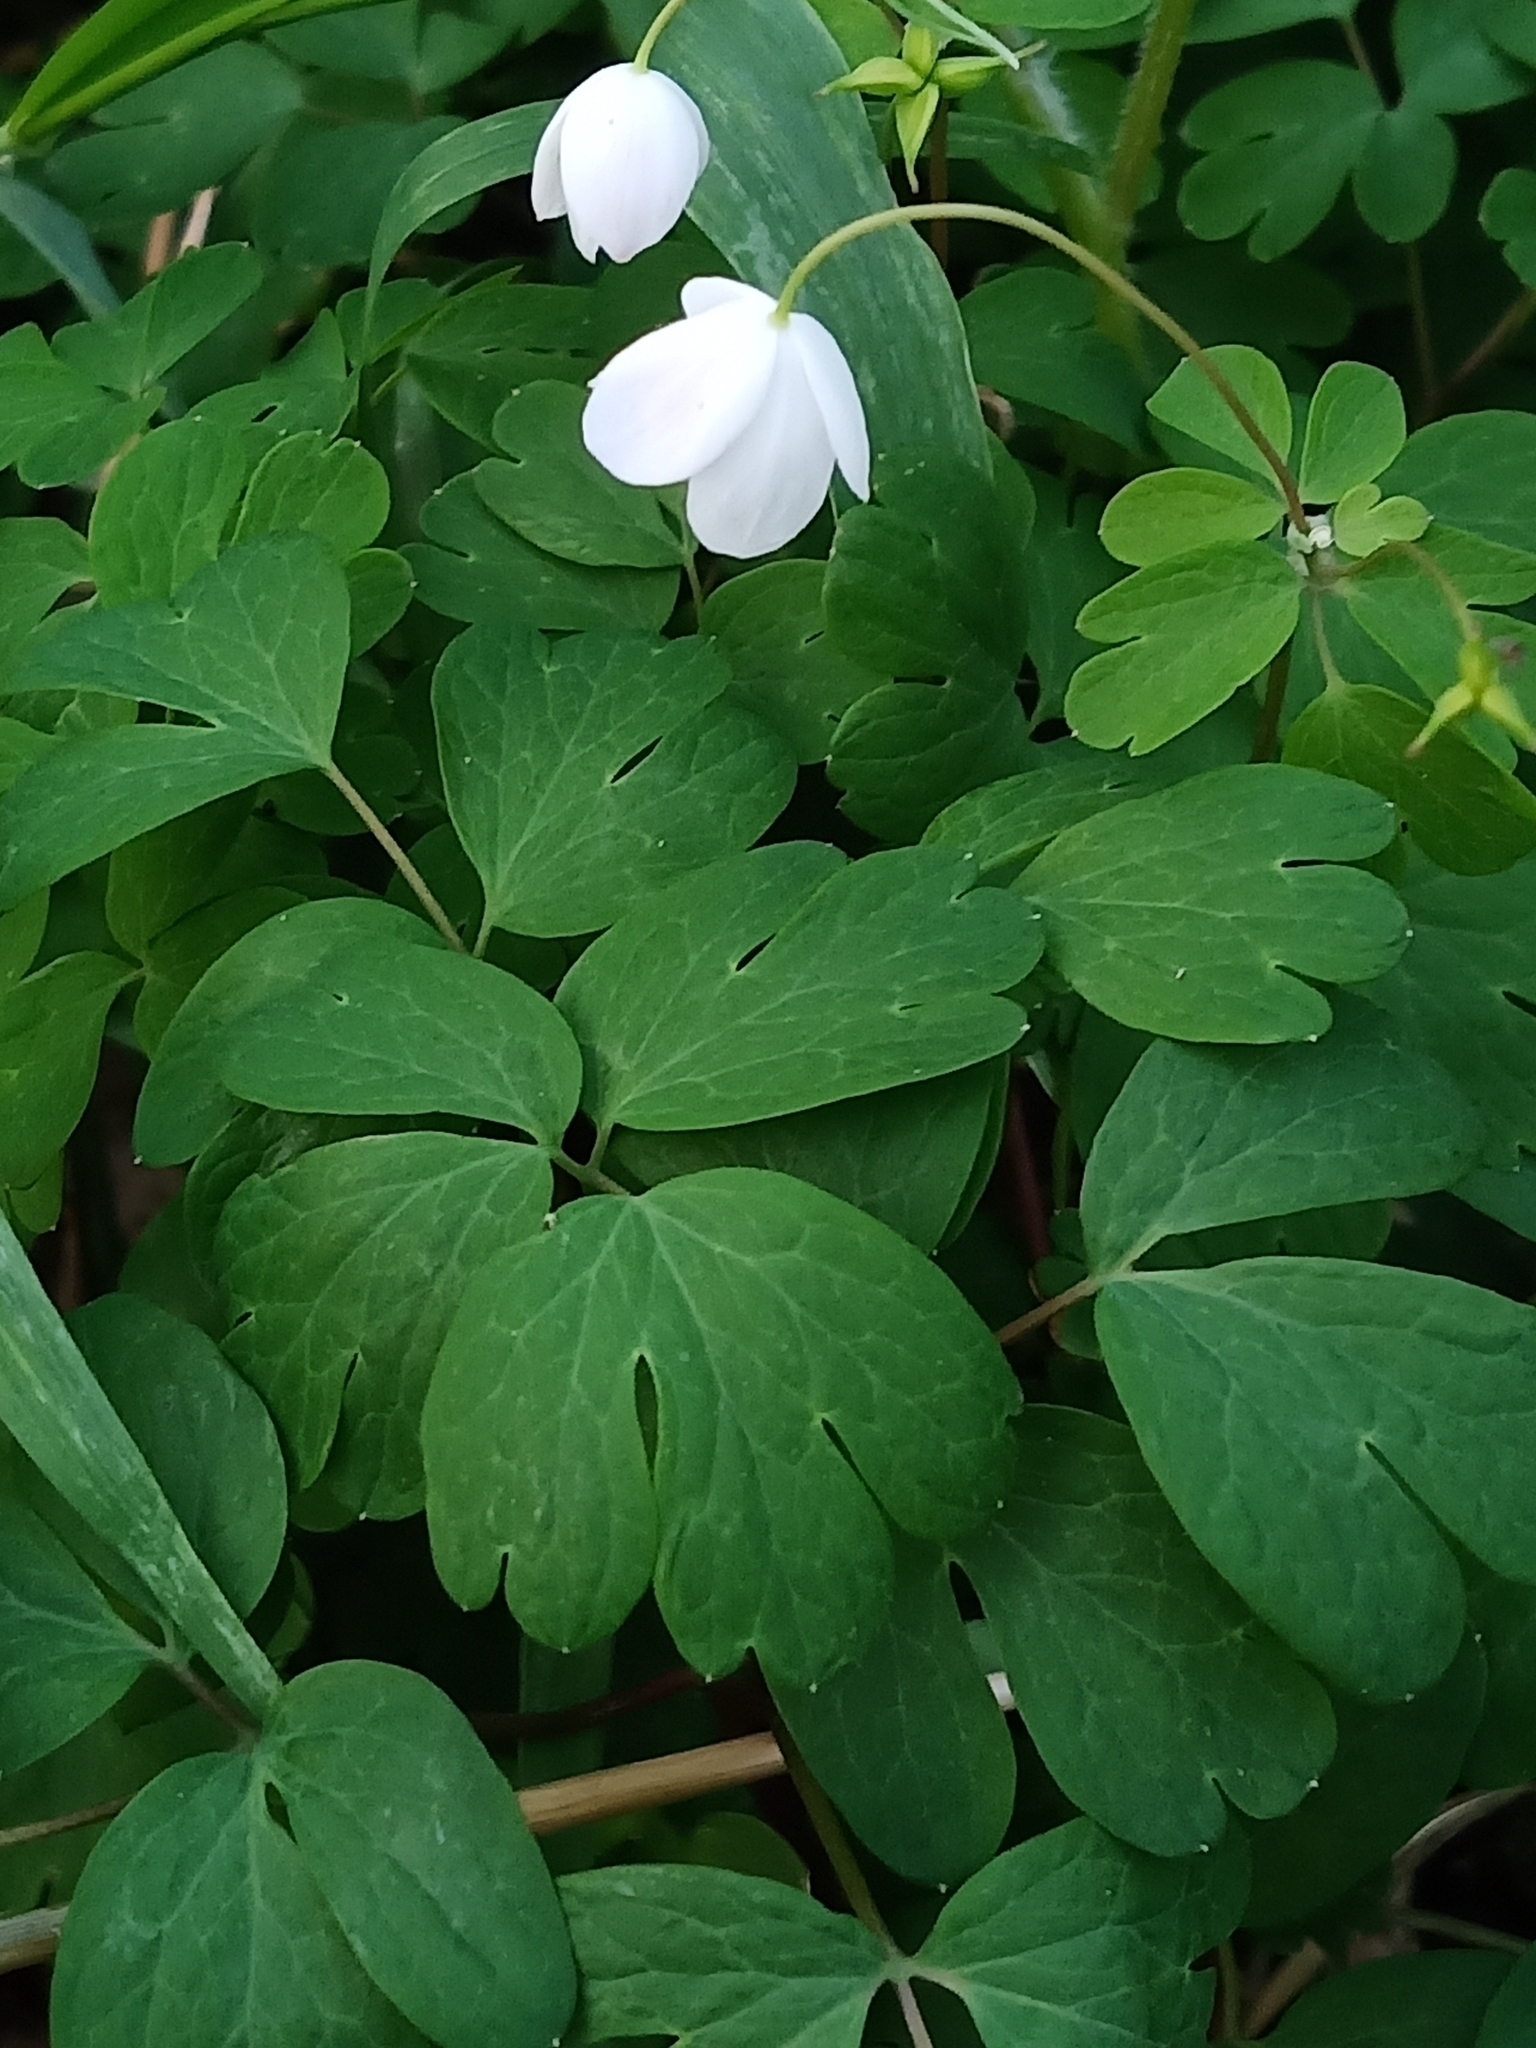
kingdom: Plantae
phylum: Tracheophyta
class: Magnoliopsida
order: Ranunculales
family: Ranunculaceae
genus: Enemion
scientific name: Enemion biternatum
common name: Eastern false rue-anemone
